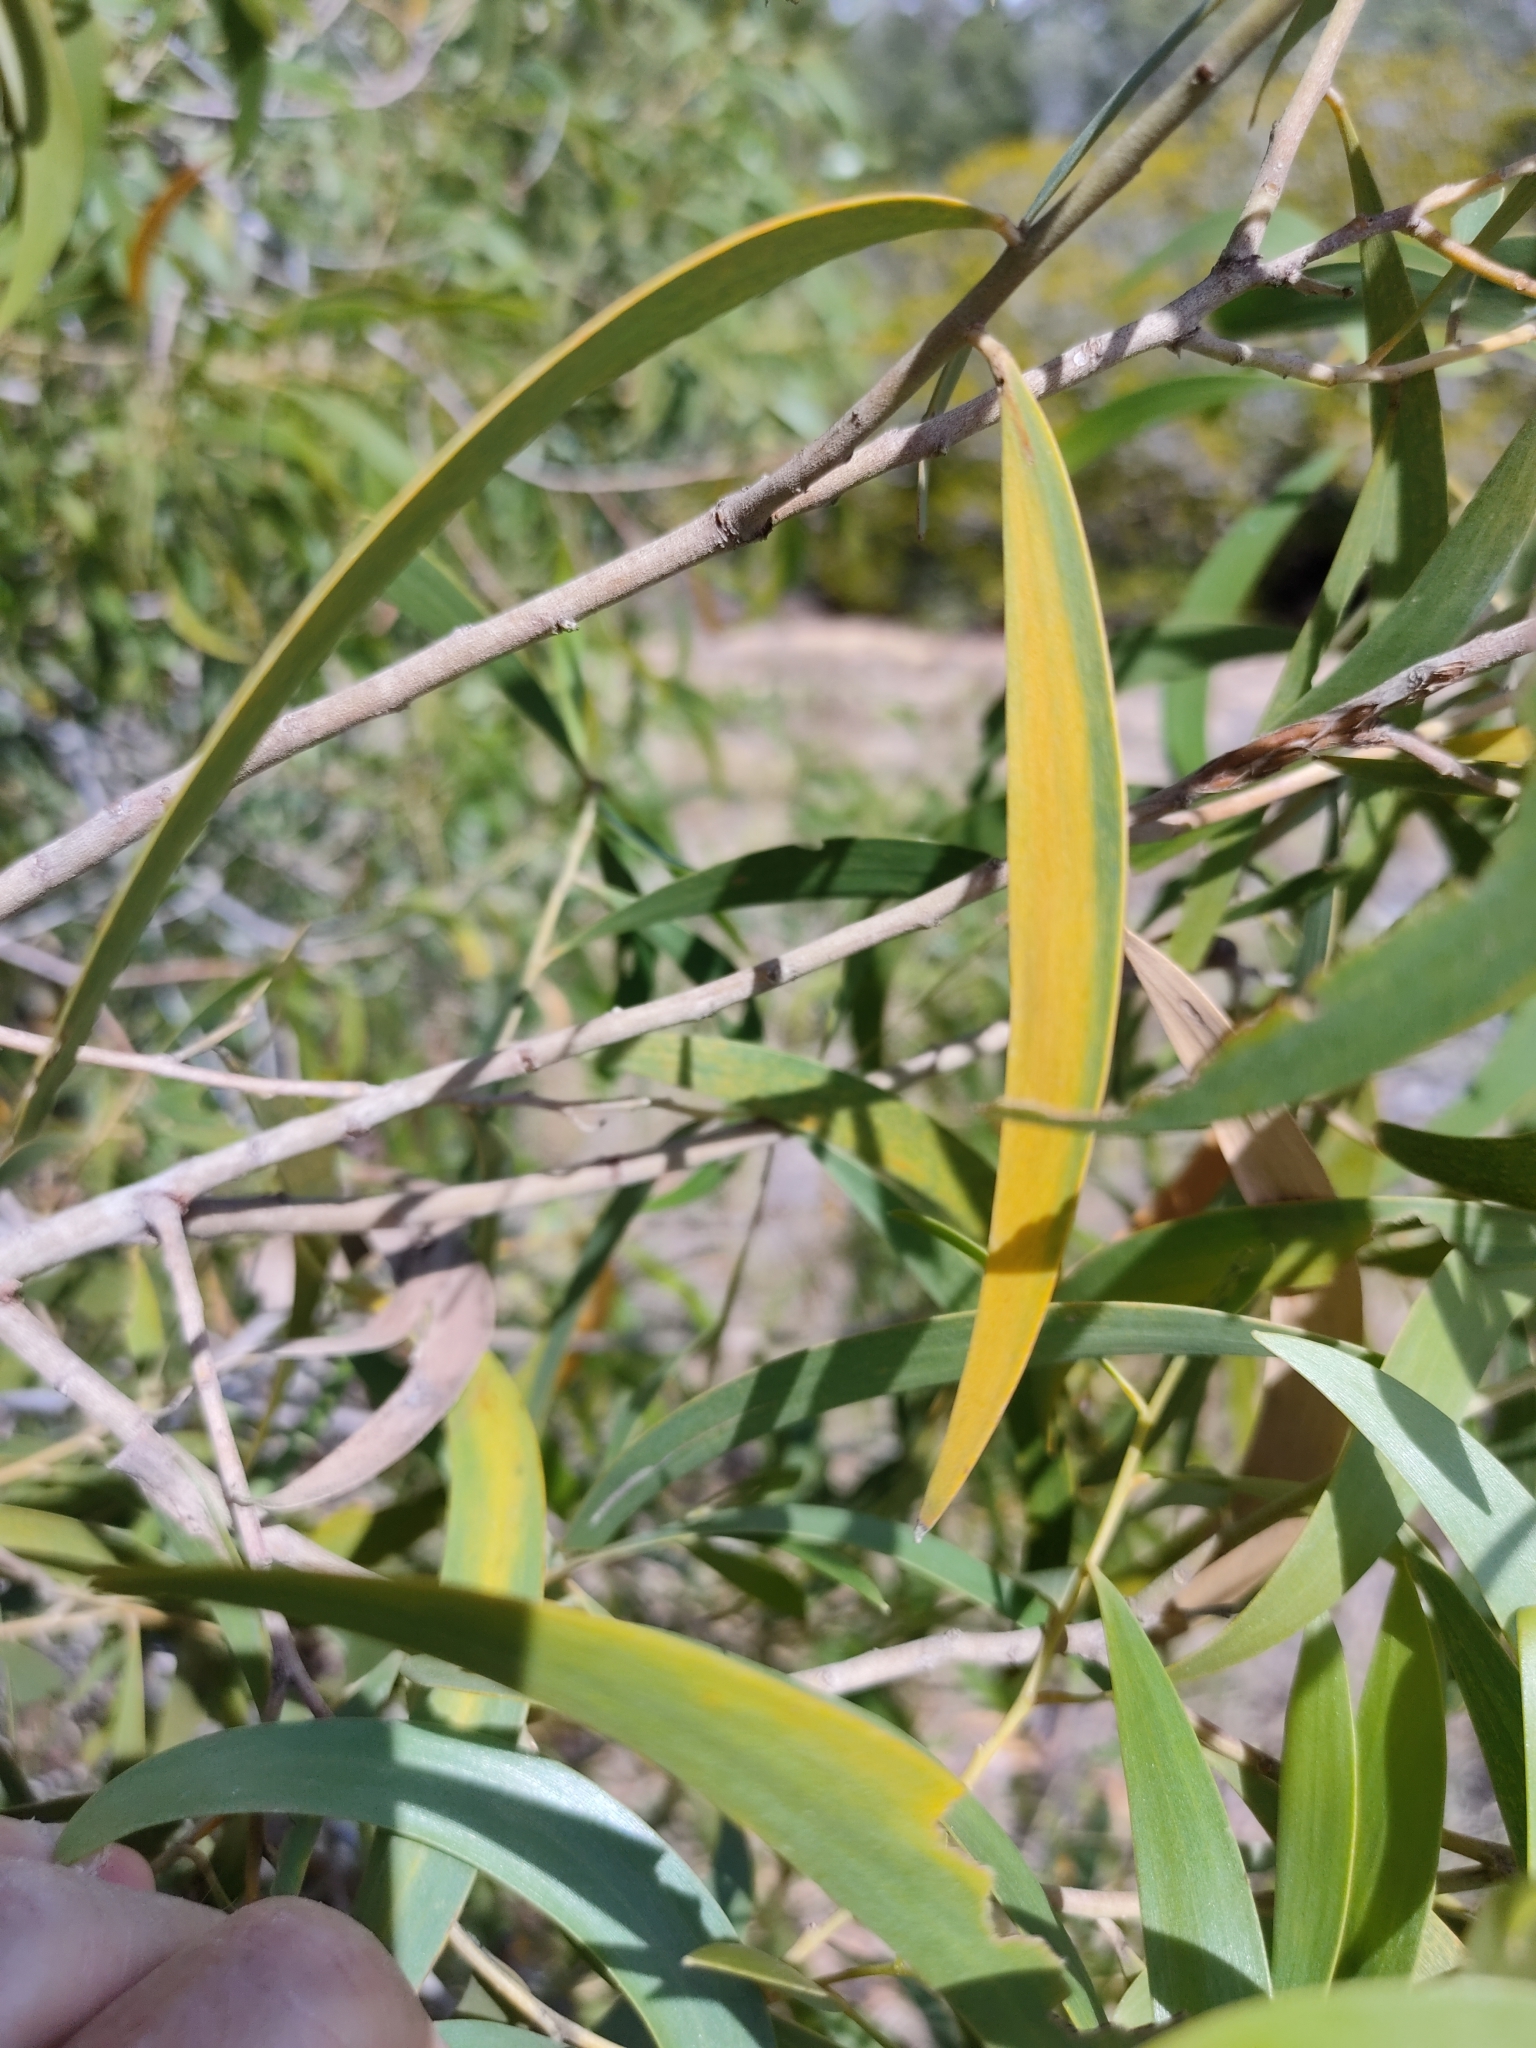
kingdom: Plantae
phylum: Tracheophyta
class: Magnoliopsida
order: Fabales
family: Fabaceae
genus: Acacia
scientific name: Acacia disparrima
